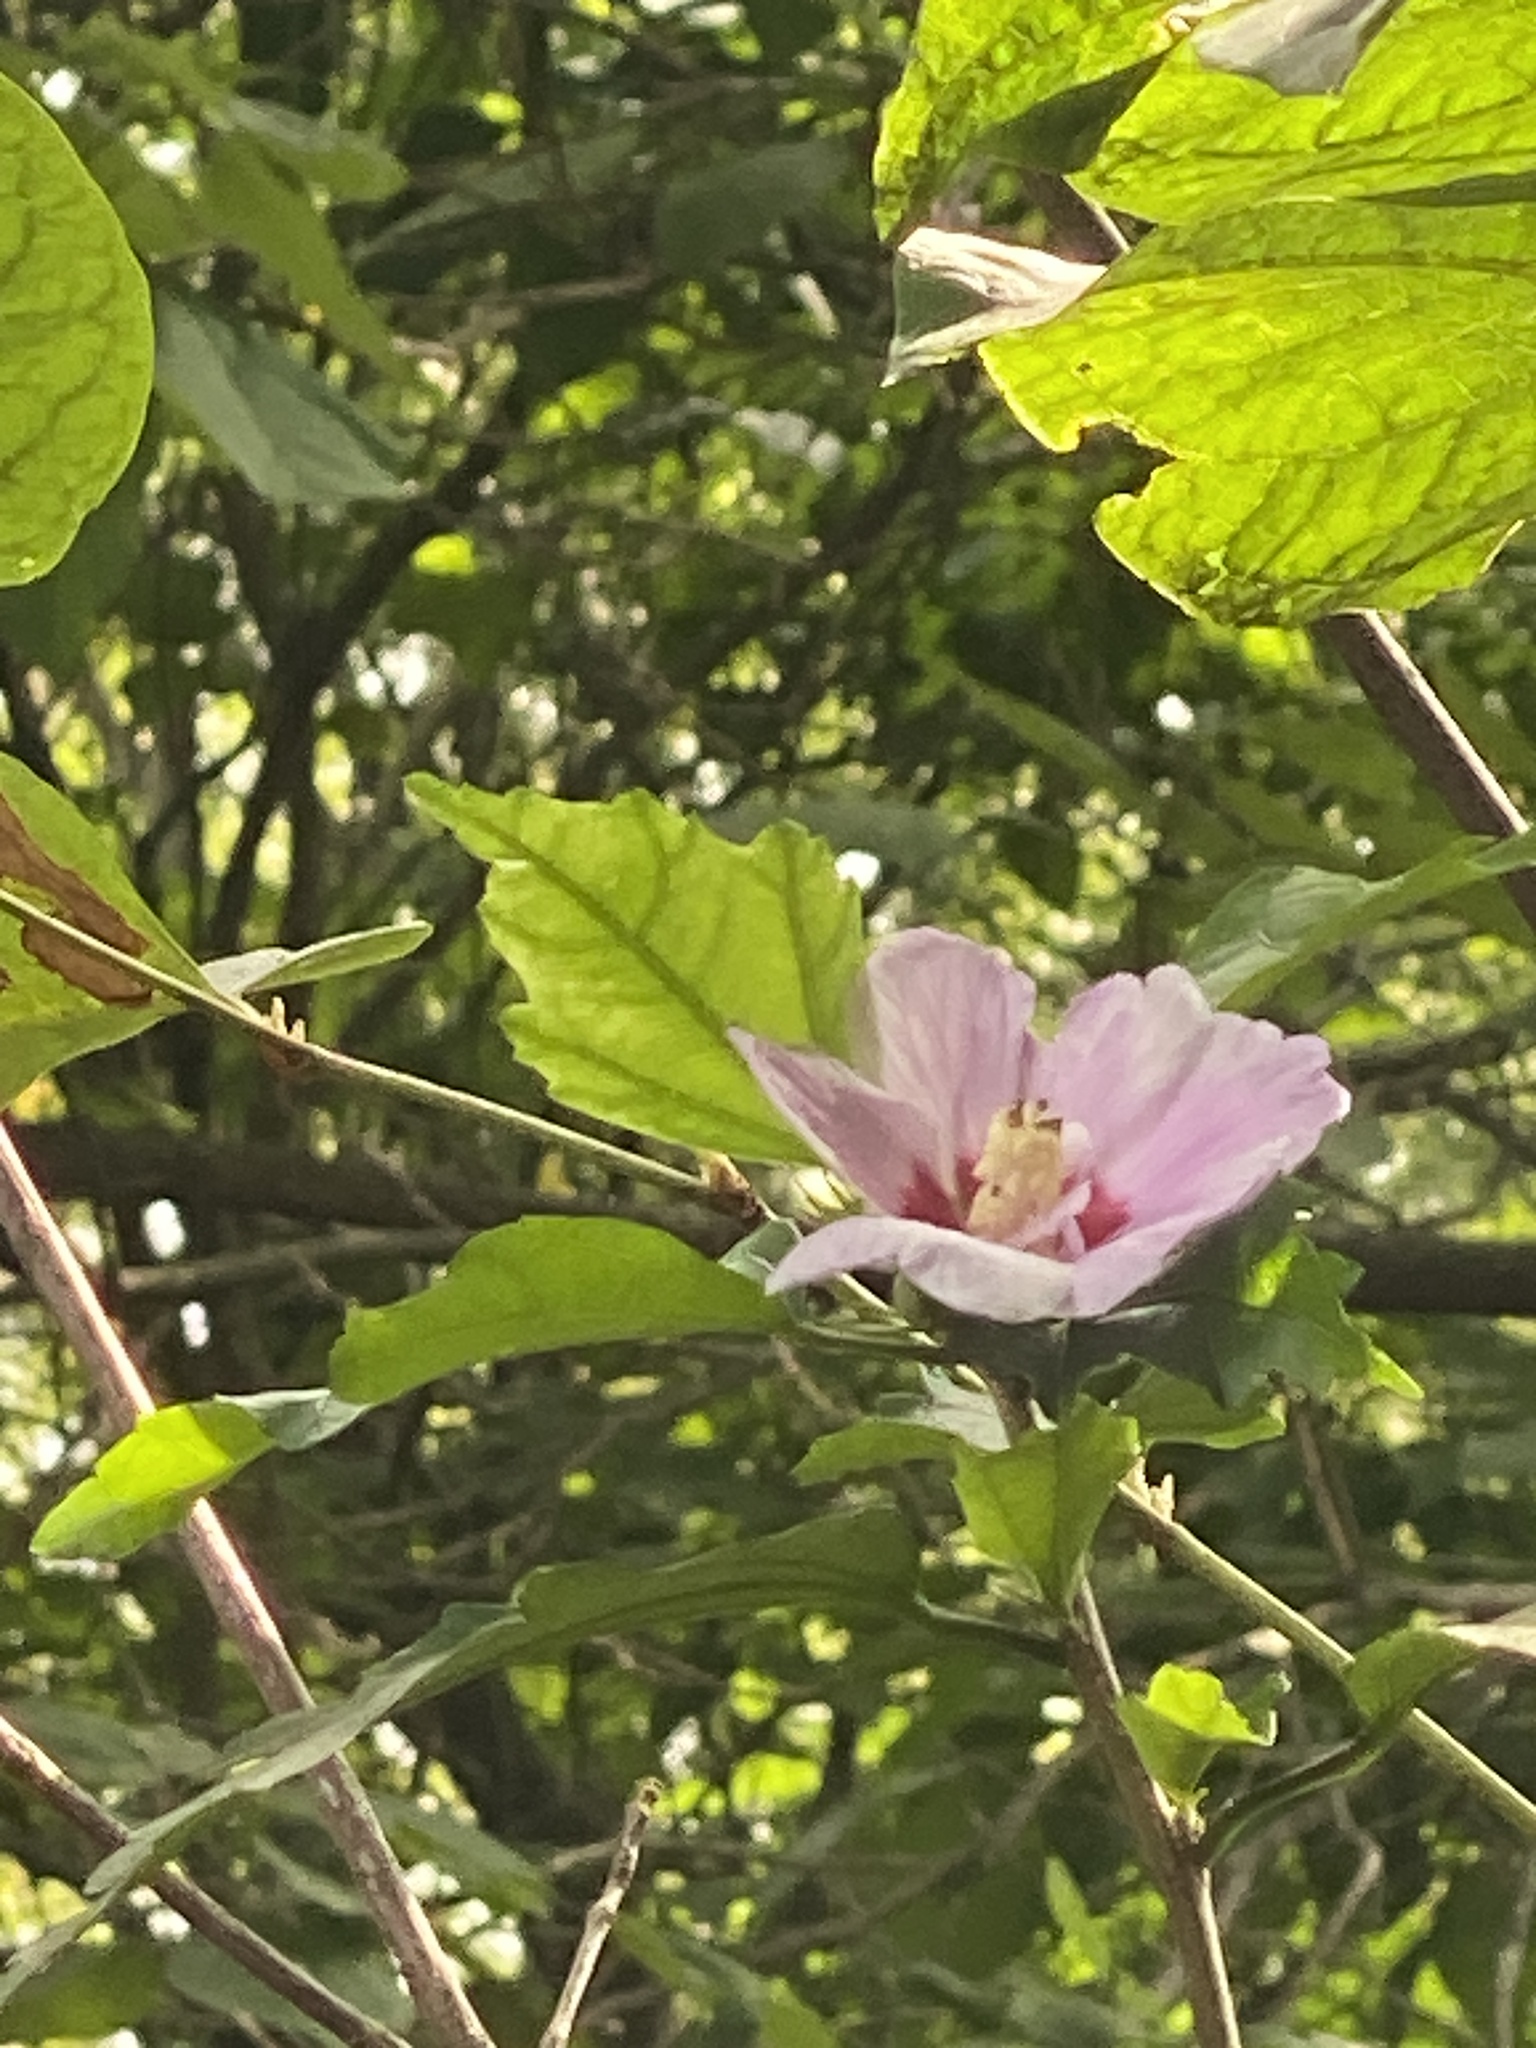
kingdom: Plantae
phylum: Tracheophyta
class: Magnoliopsida
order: Malvales
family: Malvaceae
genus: Hibiscus
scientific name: Hibiscus syriacus
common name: Syrian ketmia
